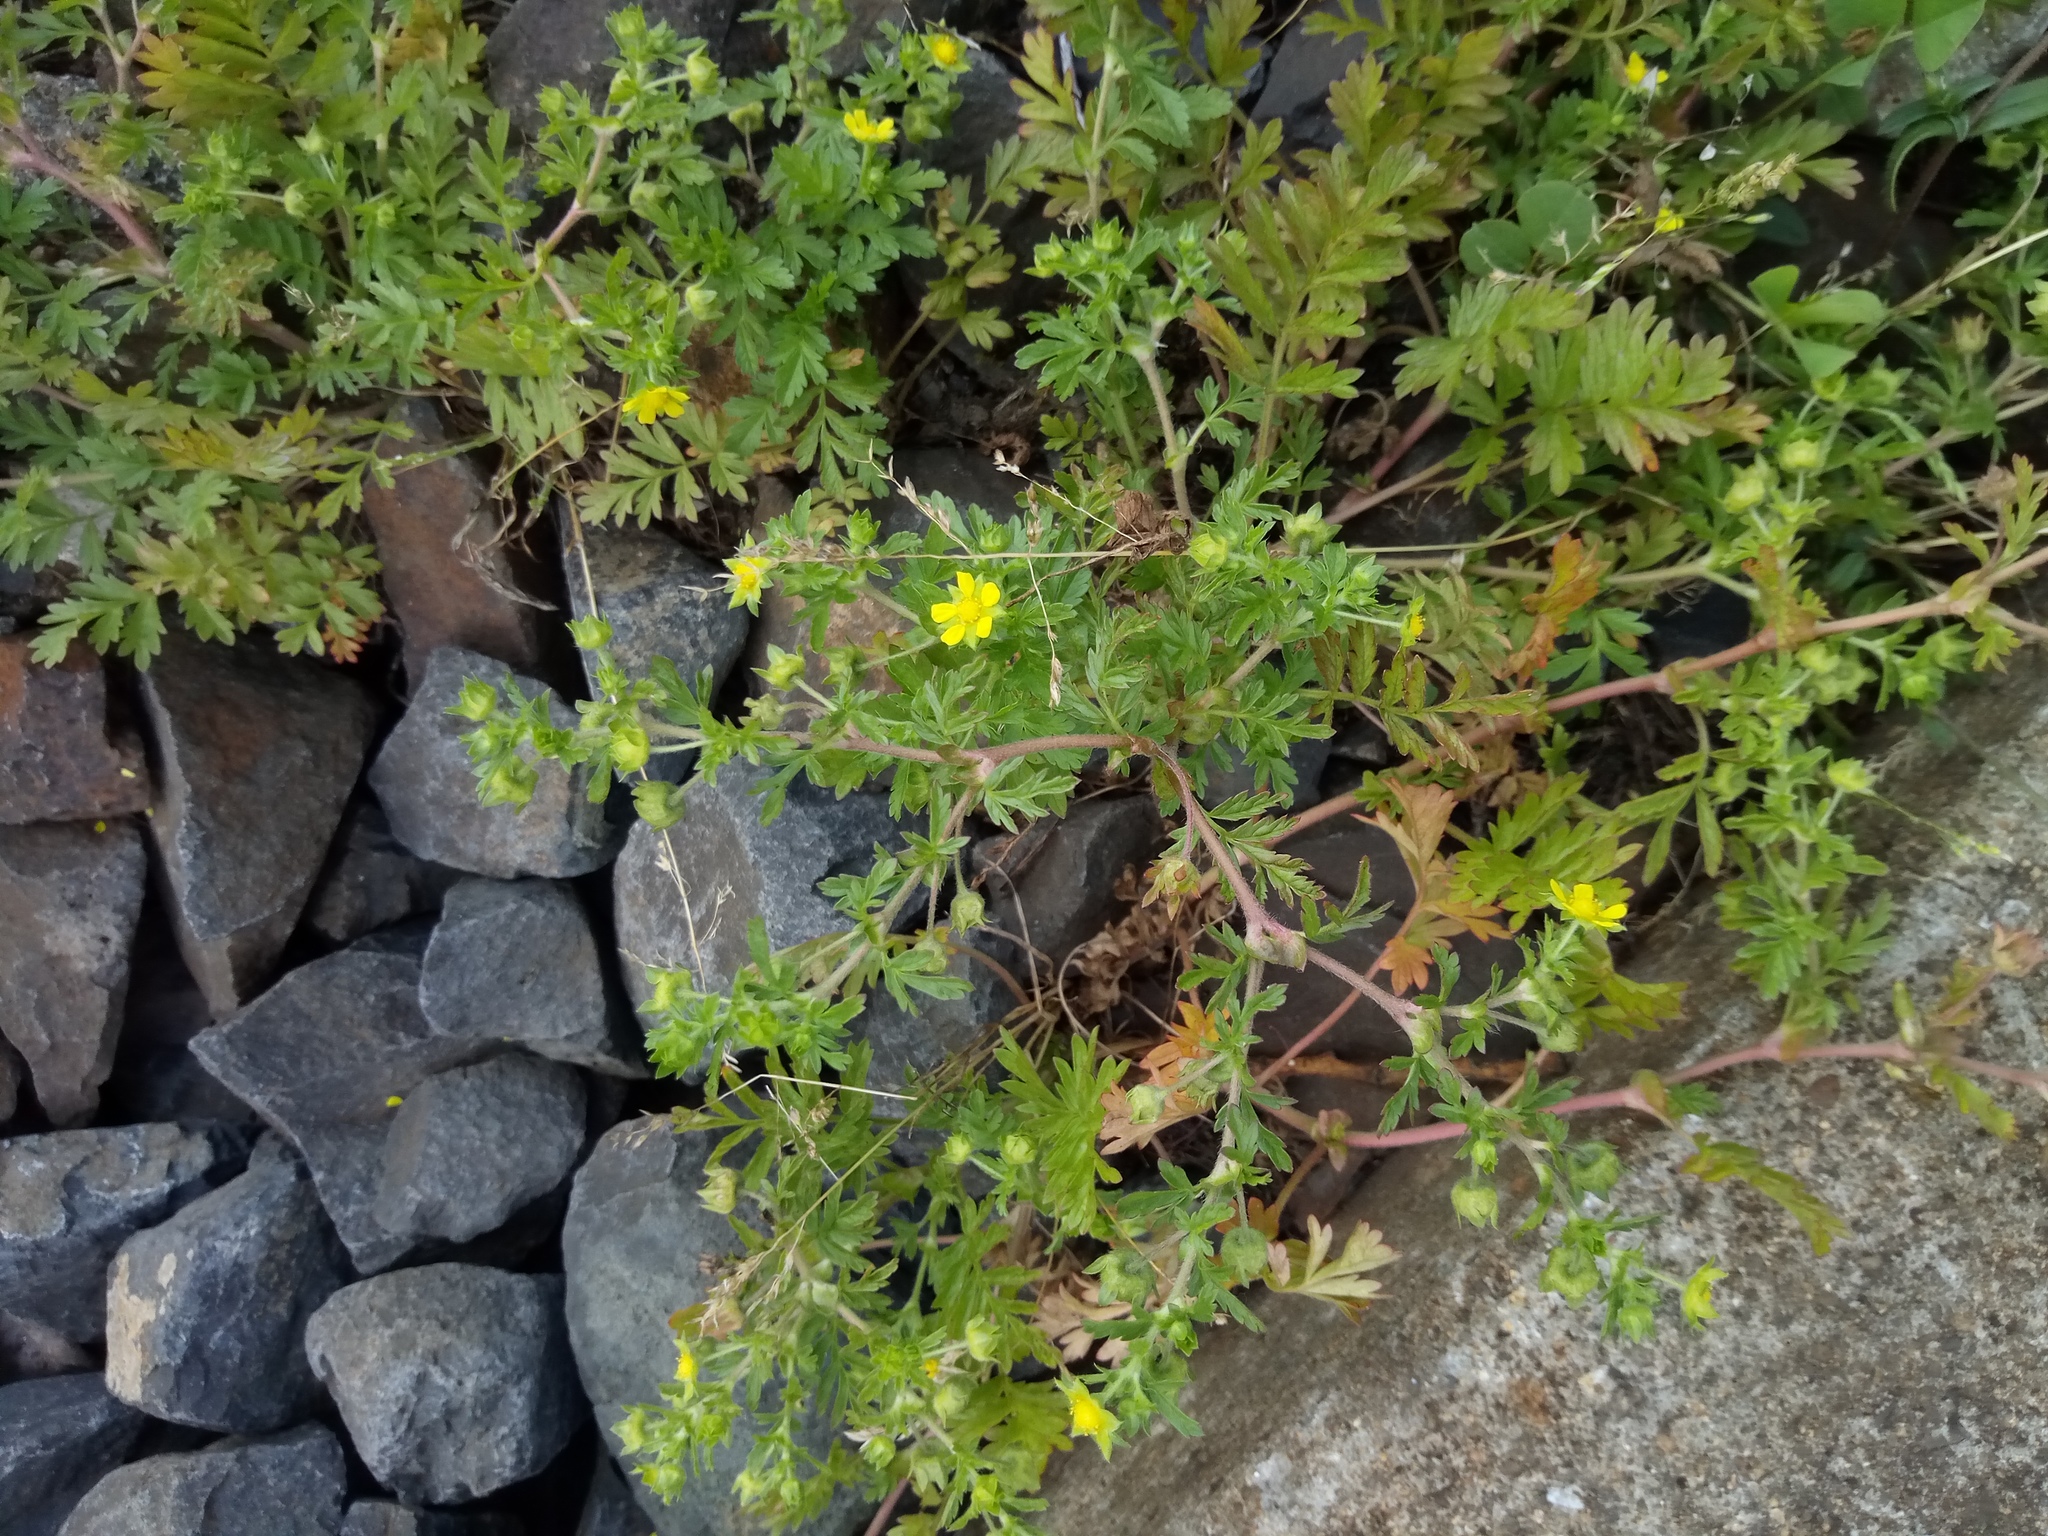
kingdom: Plantae
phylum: Tracheophyta
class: Magnoliopsida
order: Rosales
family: Rosaceae
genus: Potentilla
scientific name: Potentilla supina
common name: Prostrate cinquefoil
